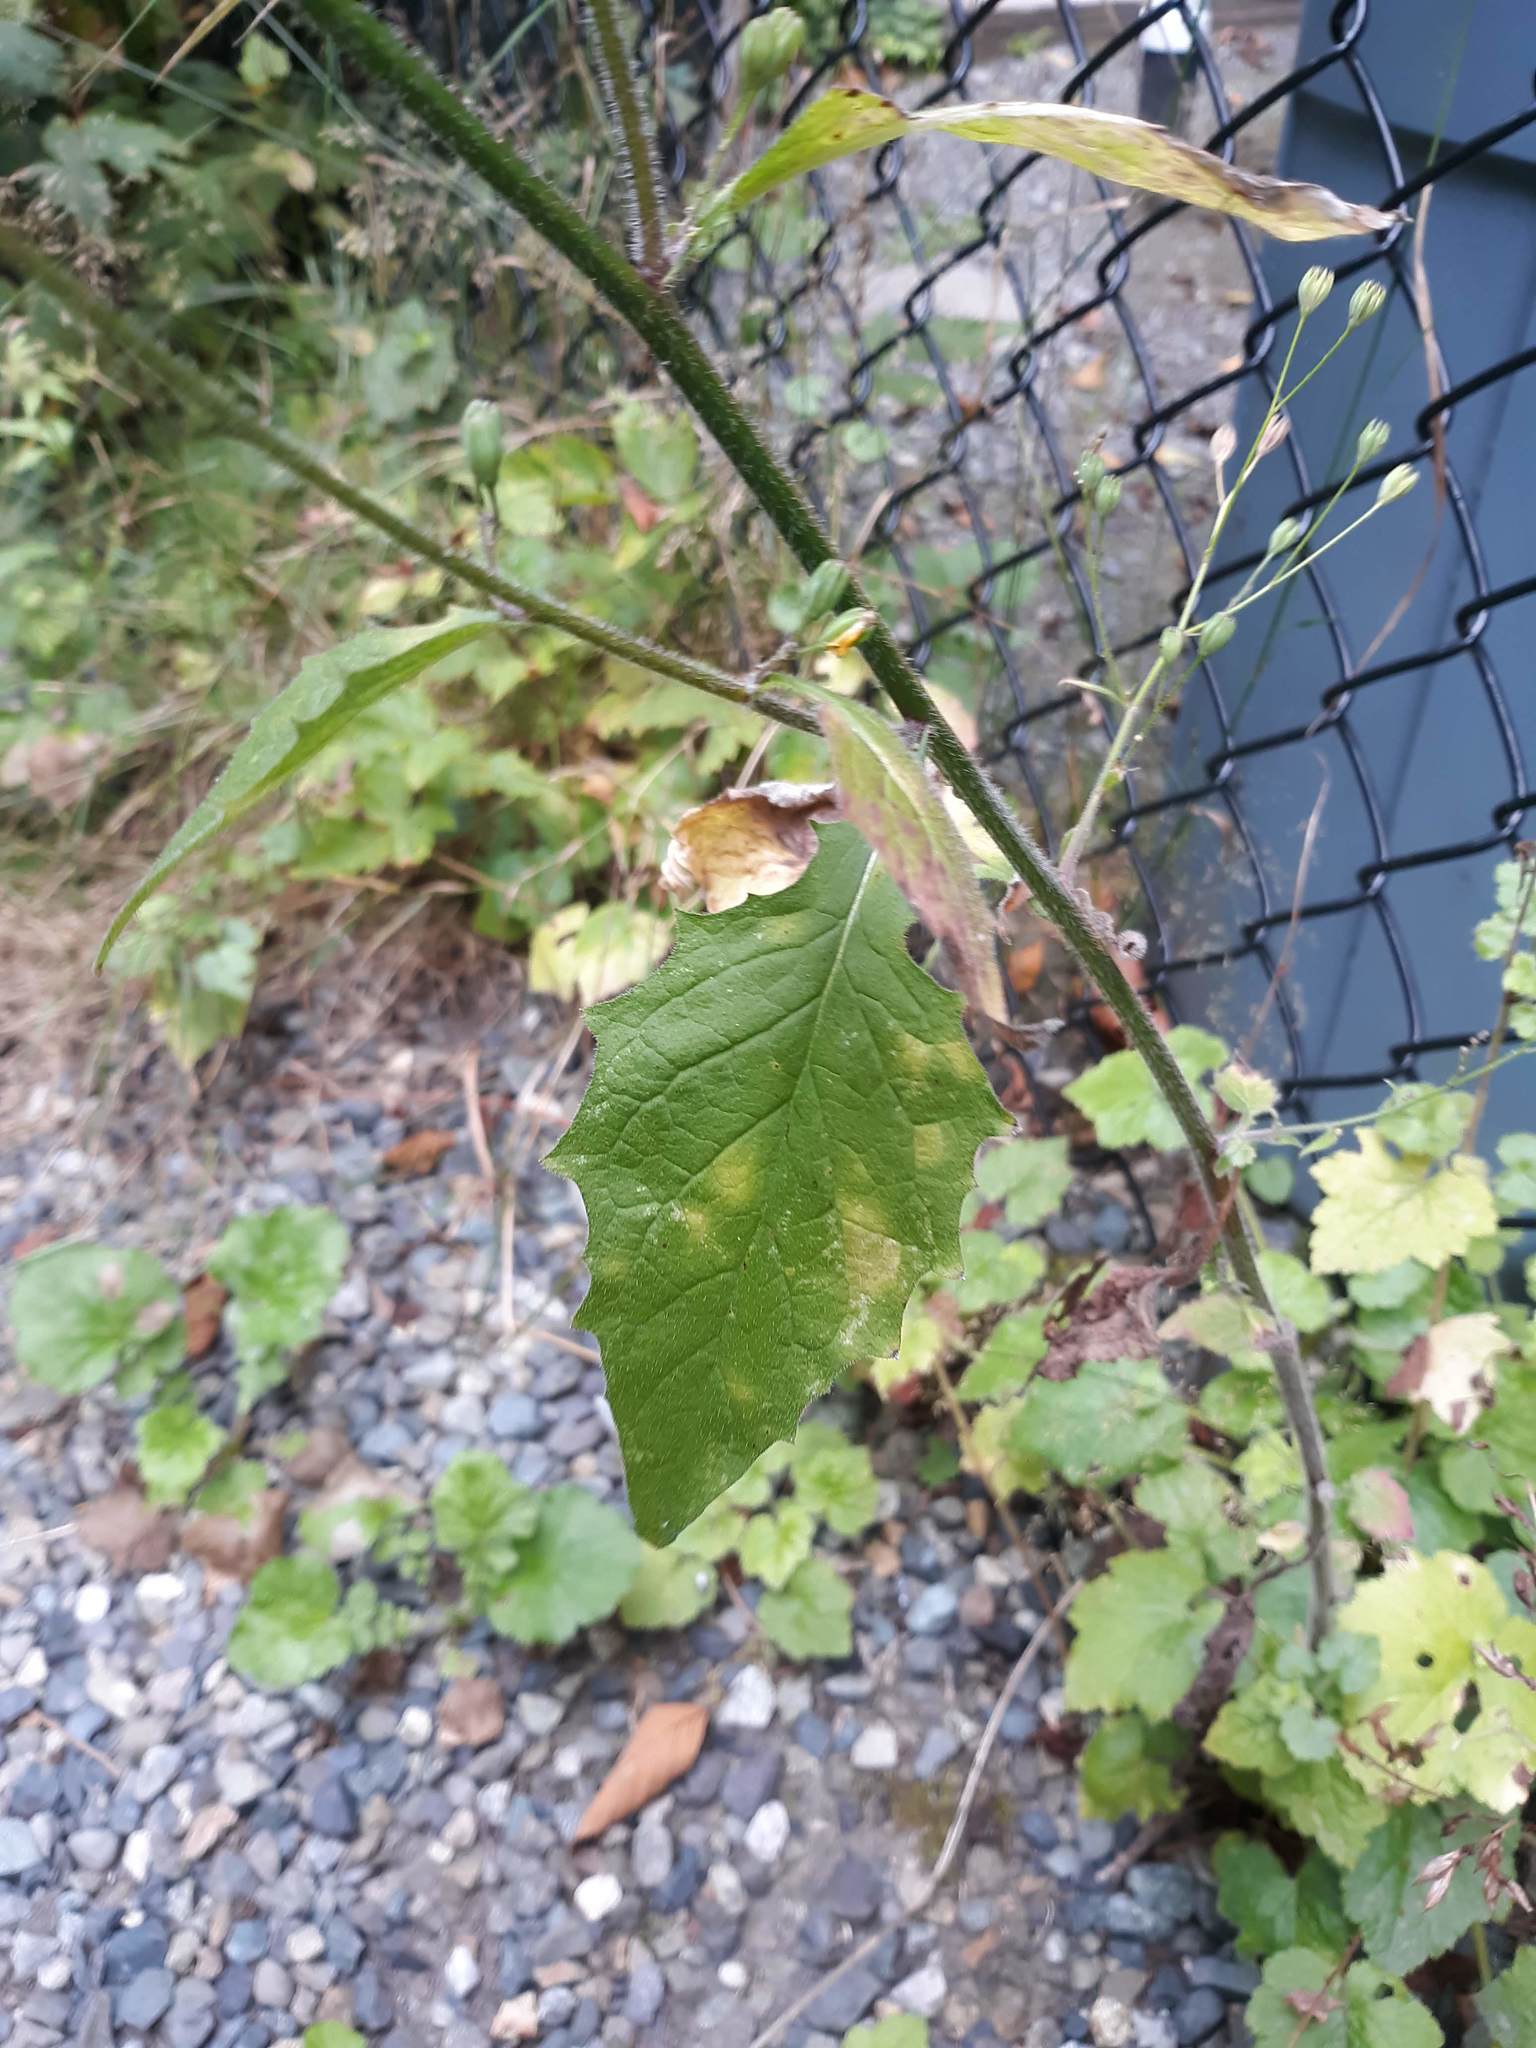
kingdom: Plantae
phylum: Tracheophyta
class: Magnoliopsida
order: Asterales
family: Asteraceae
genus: Lapsana
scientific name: Lapsana communis
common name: Nipplewort
